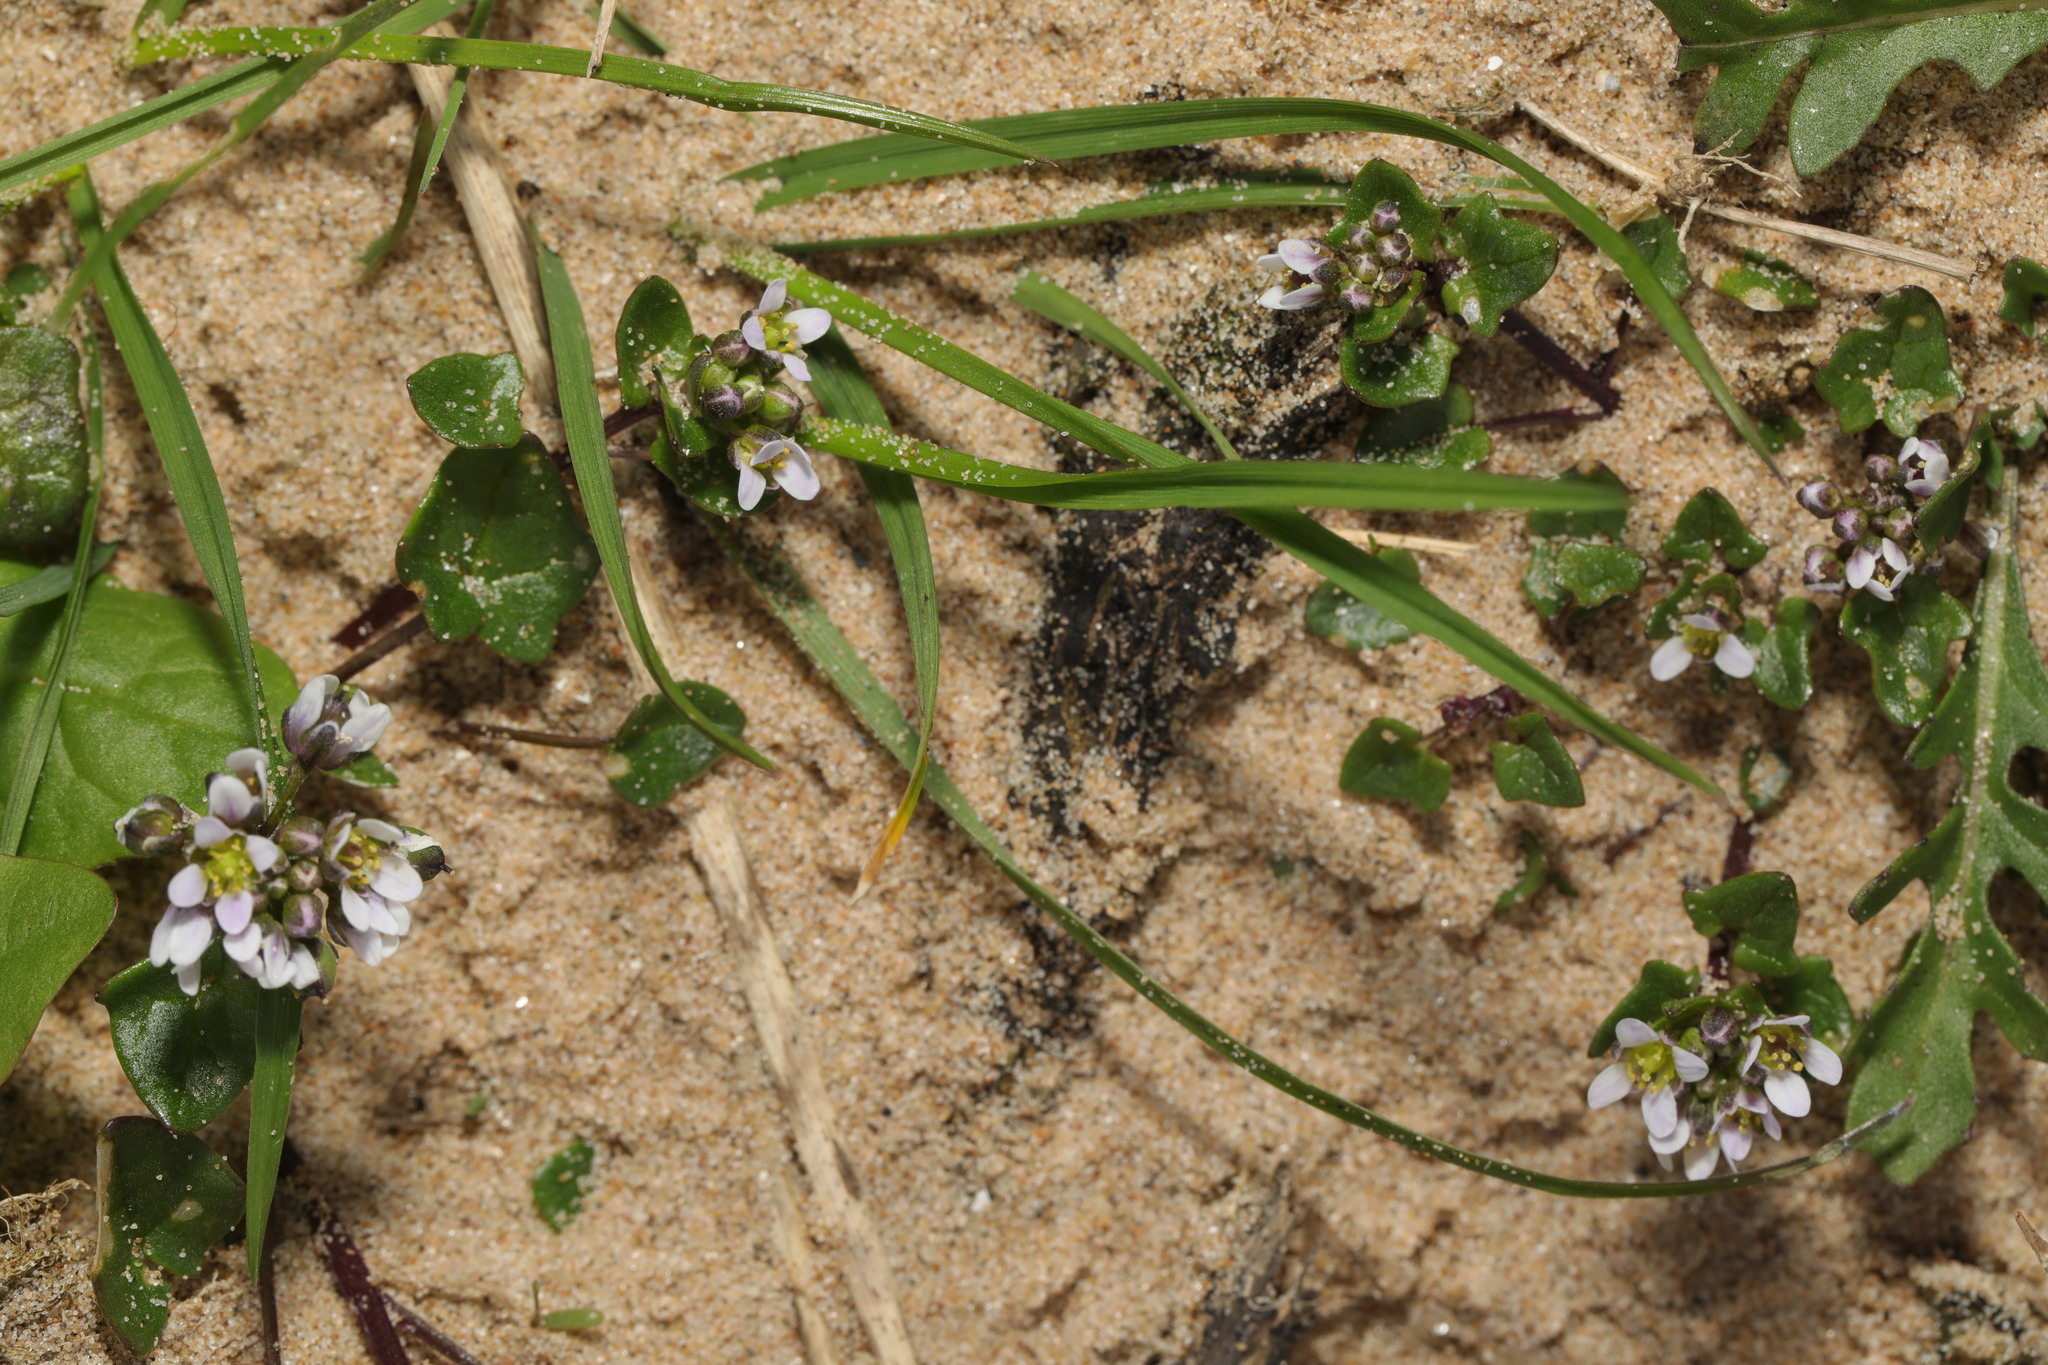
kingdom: Plantae
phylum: Tracheophyta
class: Magnoliopsida
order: Brassicales
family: Brassicaceae
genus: Cochlearia
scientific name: Cochlearia danica
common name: Early scurvygrass
